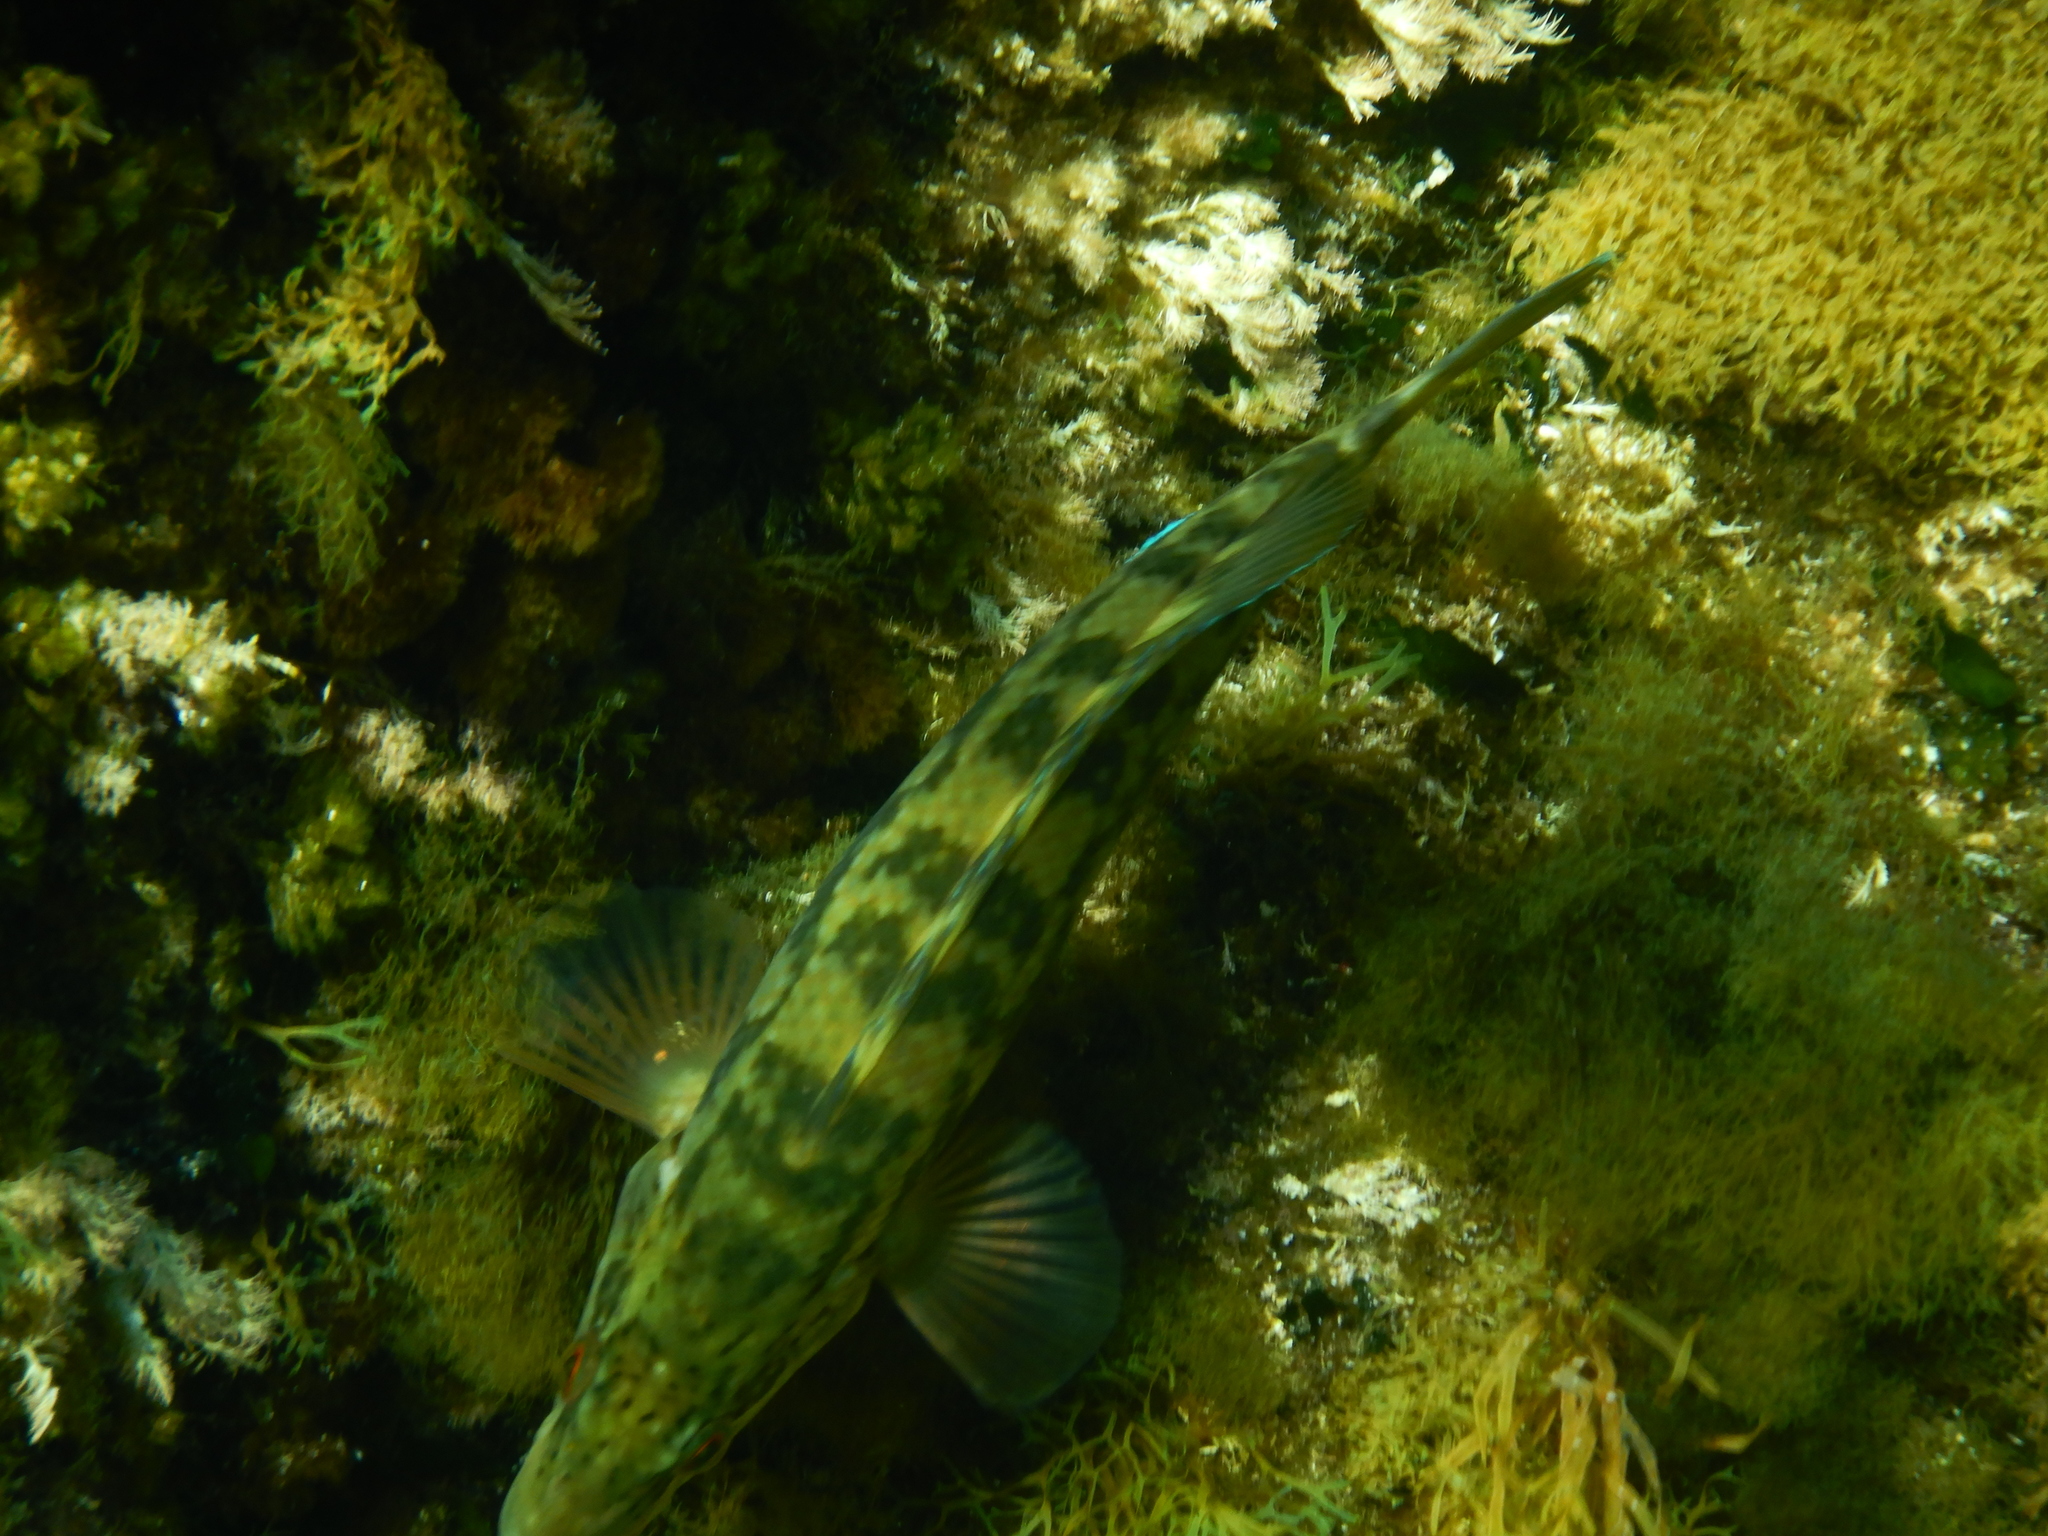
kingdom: Animalia
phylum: Chordata
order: Perciformes
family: Labridae
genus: Labrus
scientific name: Labrus
